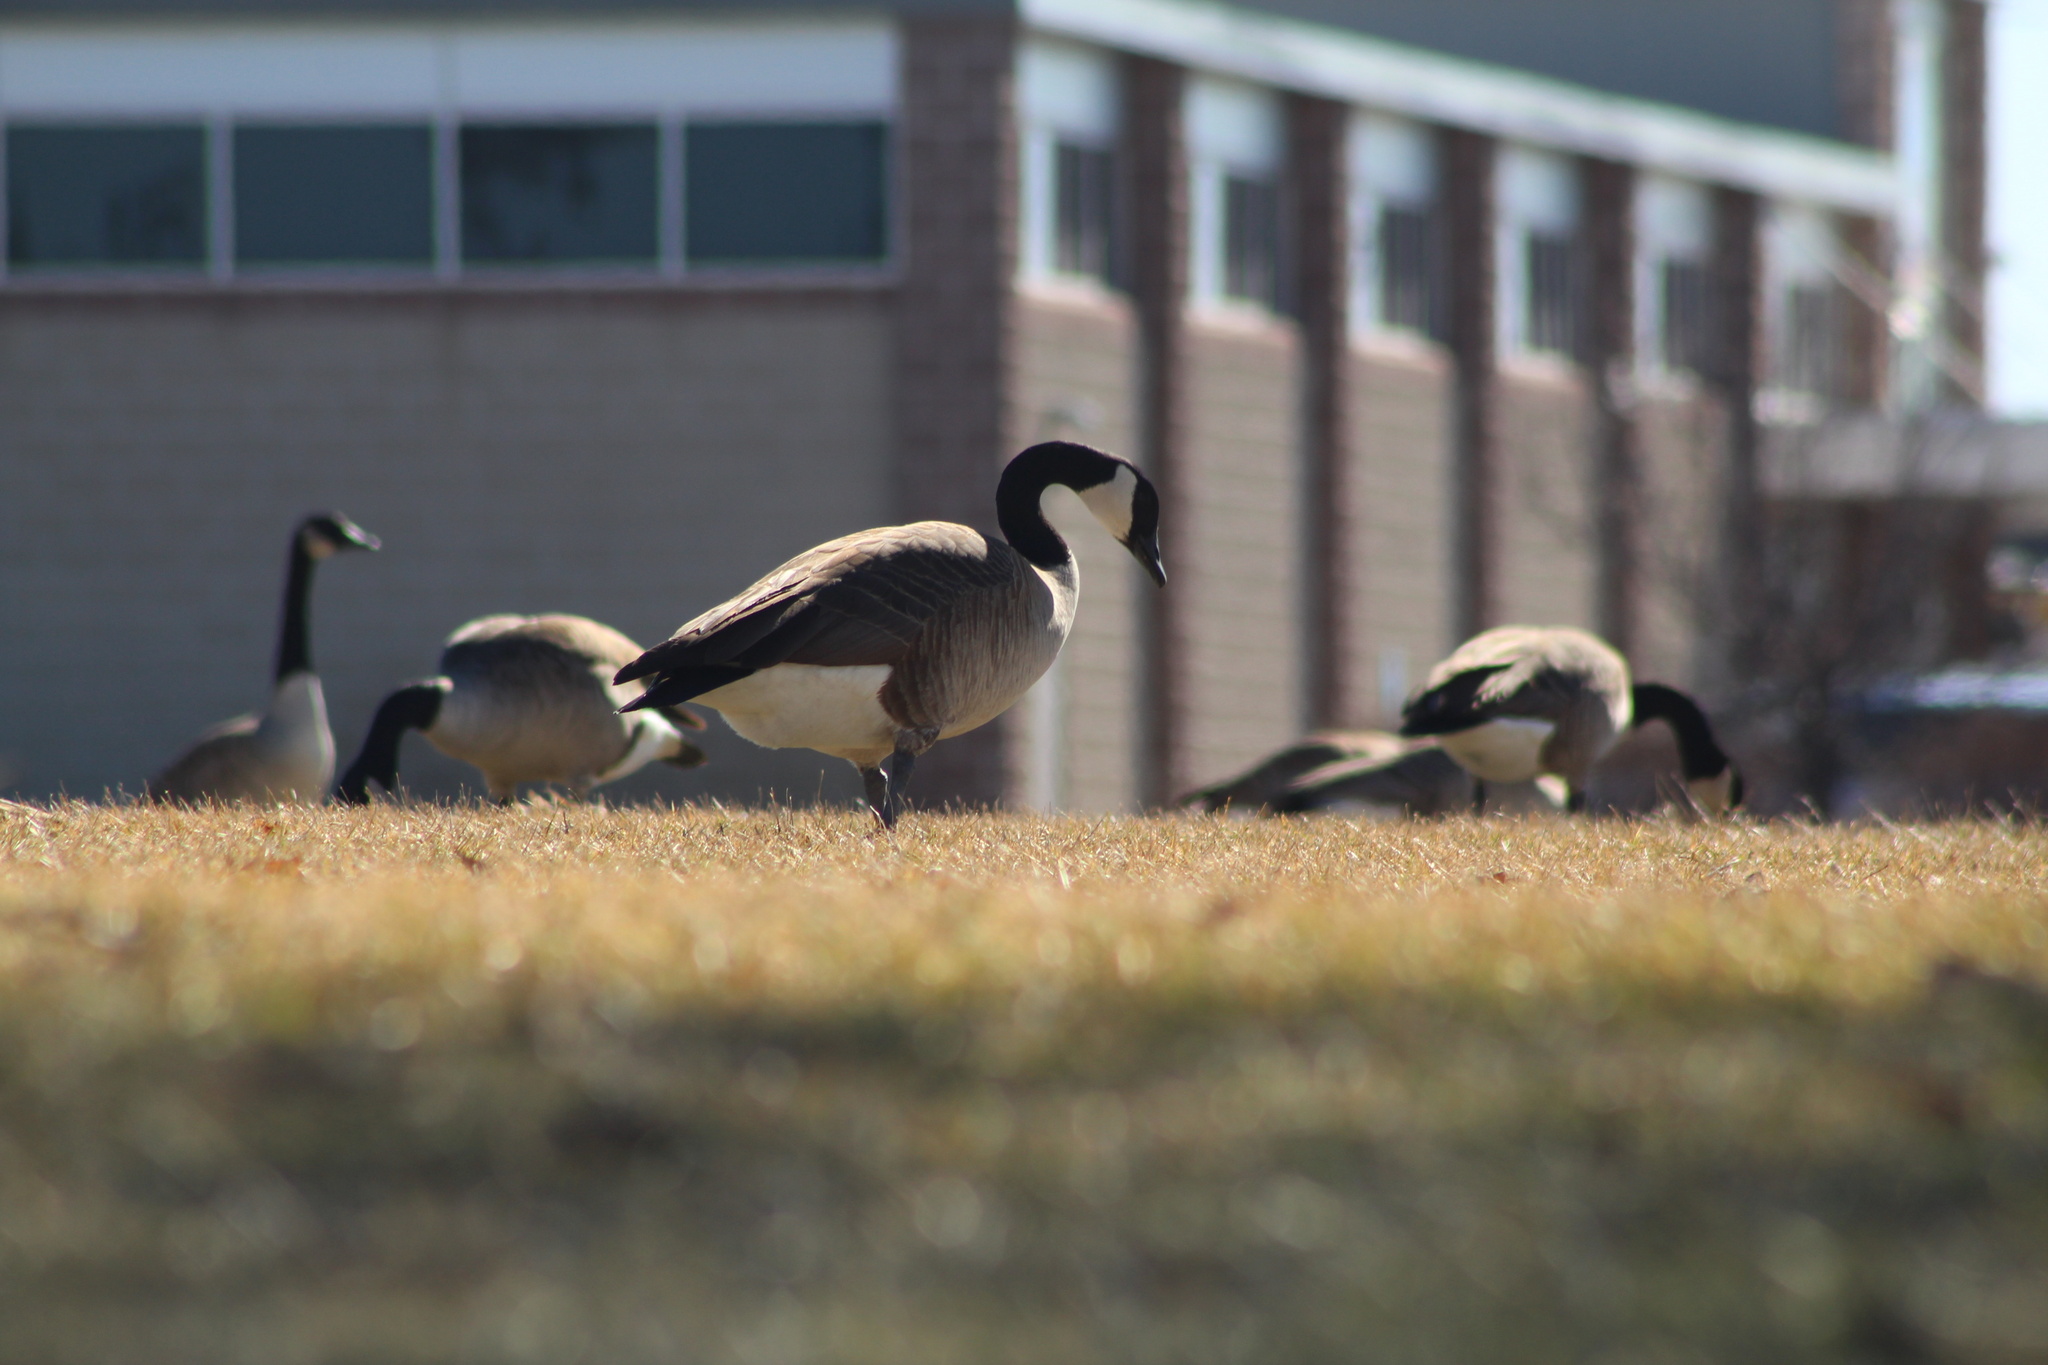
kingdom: Animalia
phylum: Chordata
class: Aves
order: Anseriformes
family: Anatidae
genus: Branta
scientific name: Branta canadensis
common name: Canada goose
